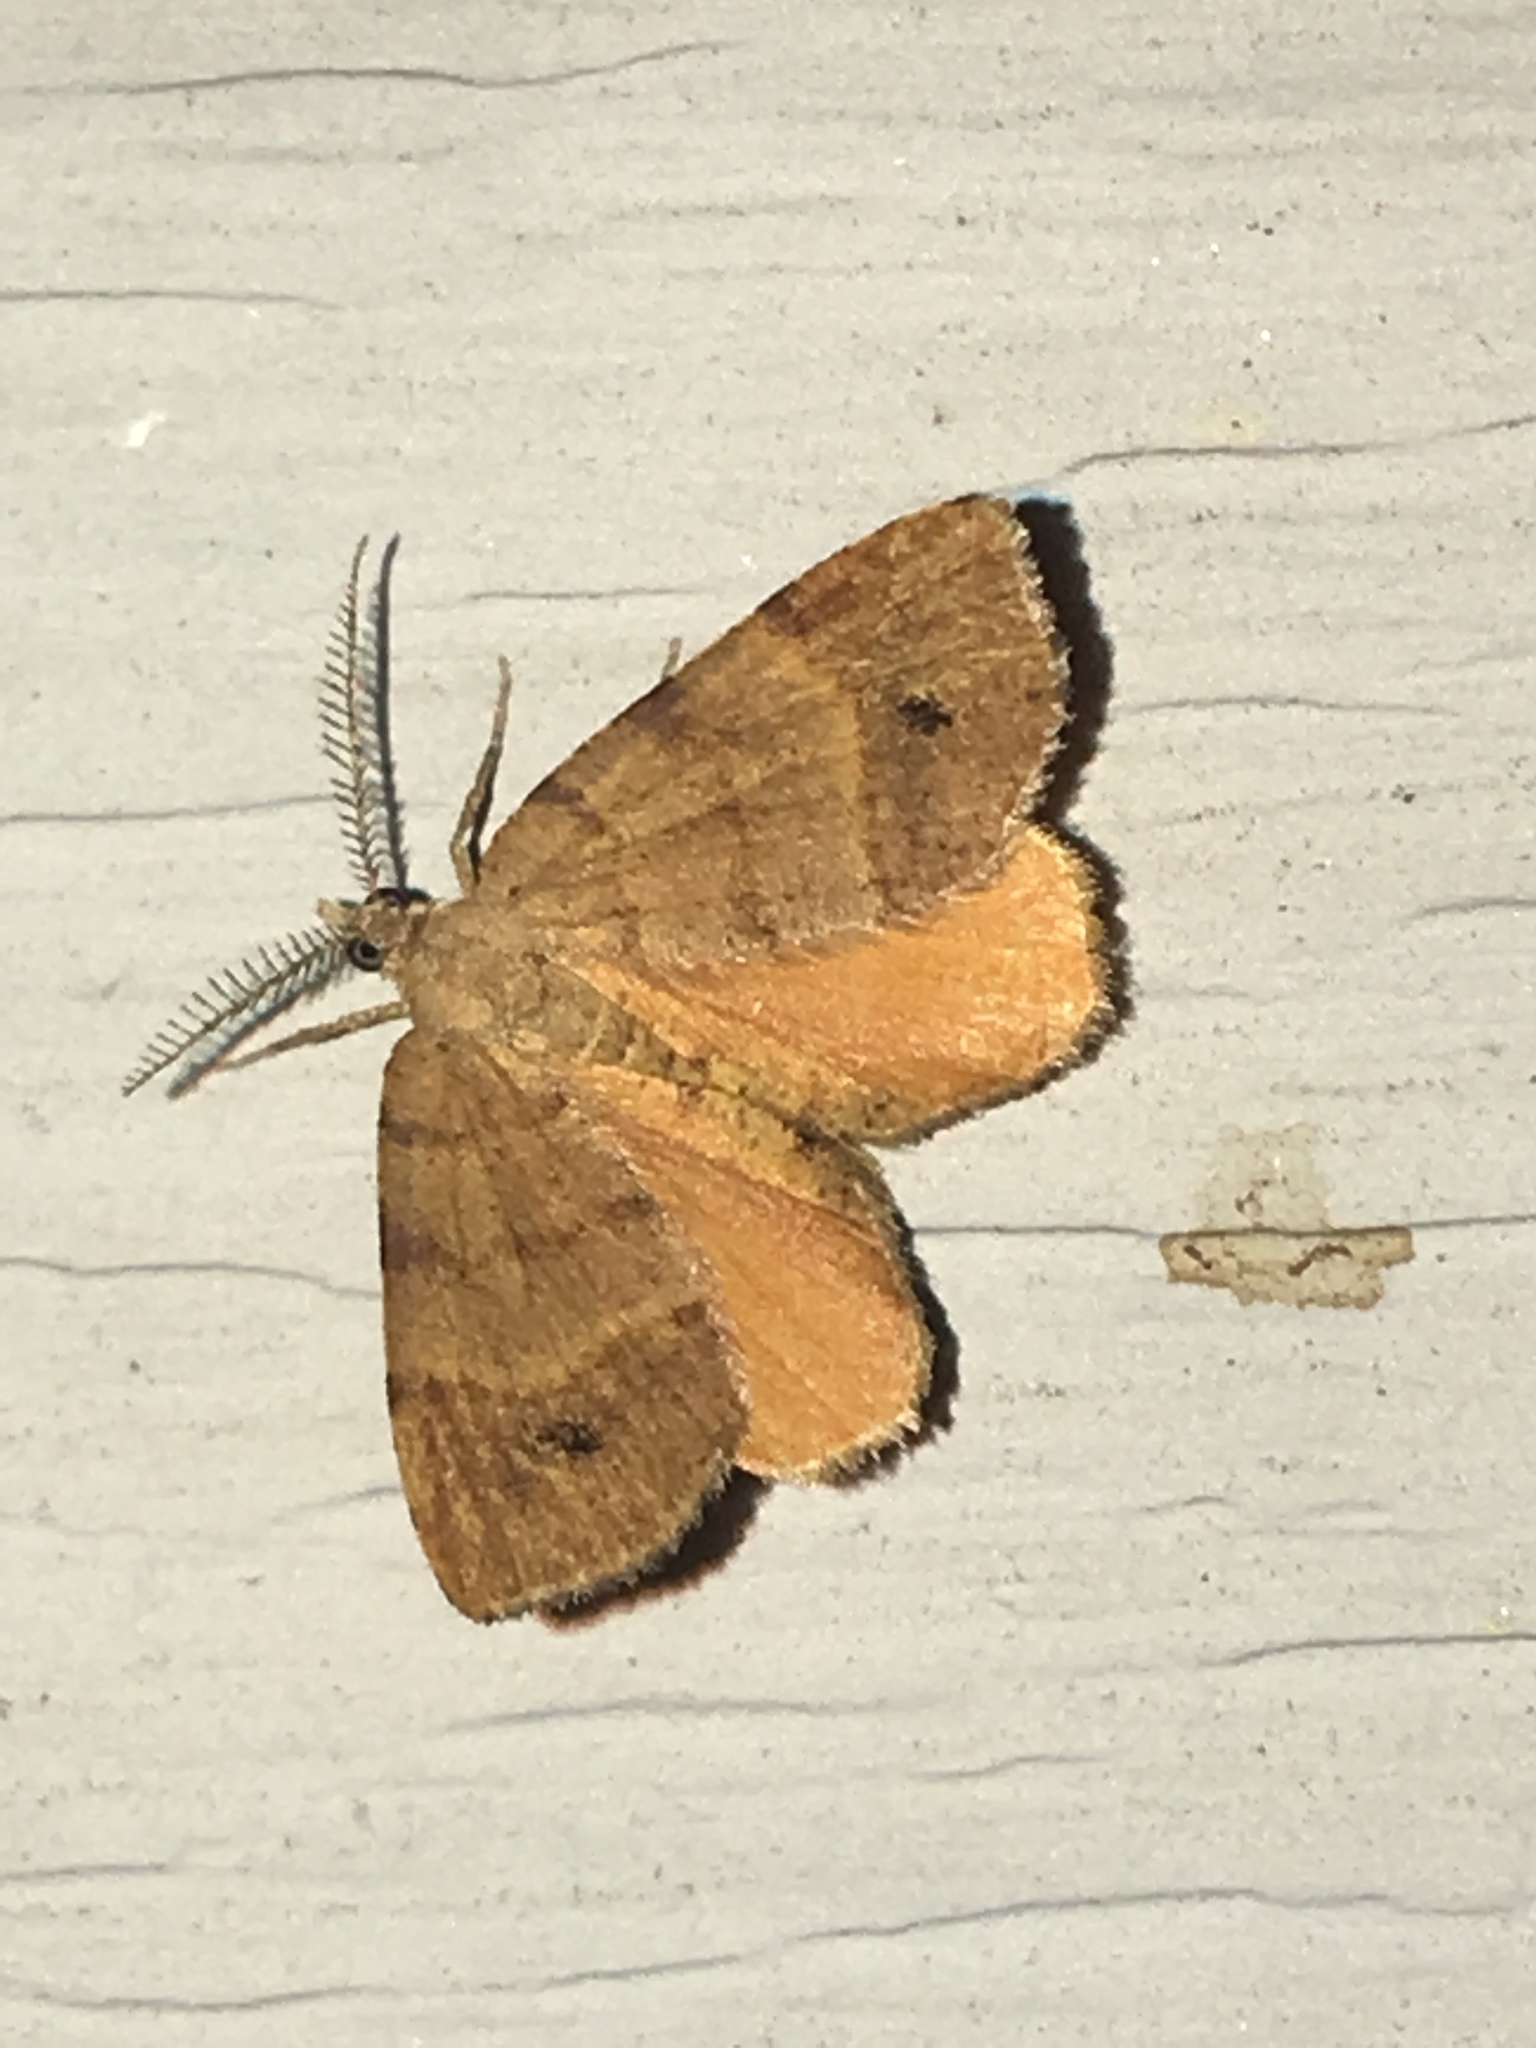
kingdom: Animalia
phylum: Arthropoda
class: Insecta
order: Lepidoptera
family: Geometridae
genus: Mellilla
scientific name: Mellilla xanthometata
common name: Orange wing moth
